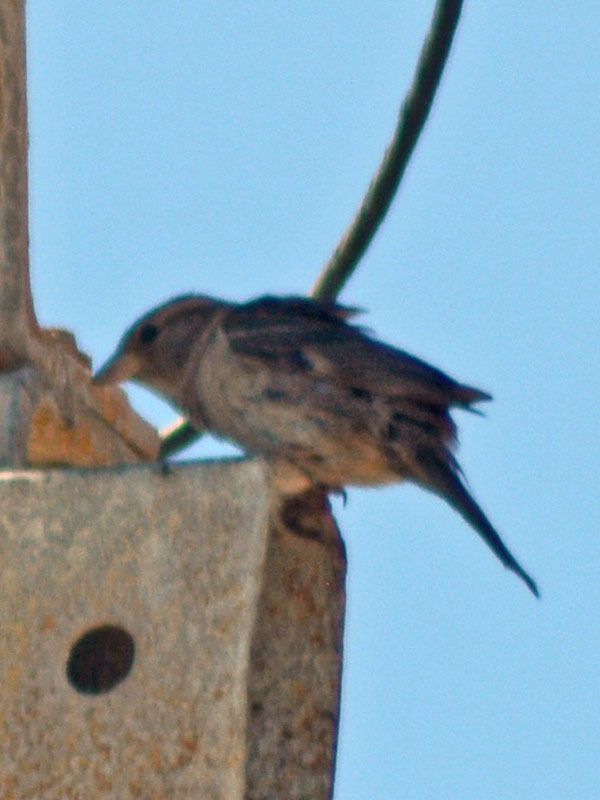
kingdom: Animalia
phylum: Chordata
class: Aves
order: Passeriformes
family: Passeridae
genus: Passer
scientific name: Passer domesticus
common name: House sparrow
